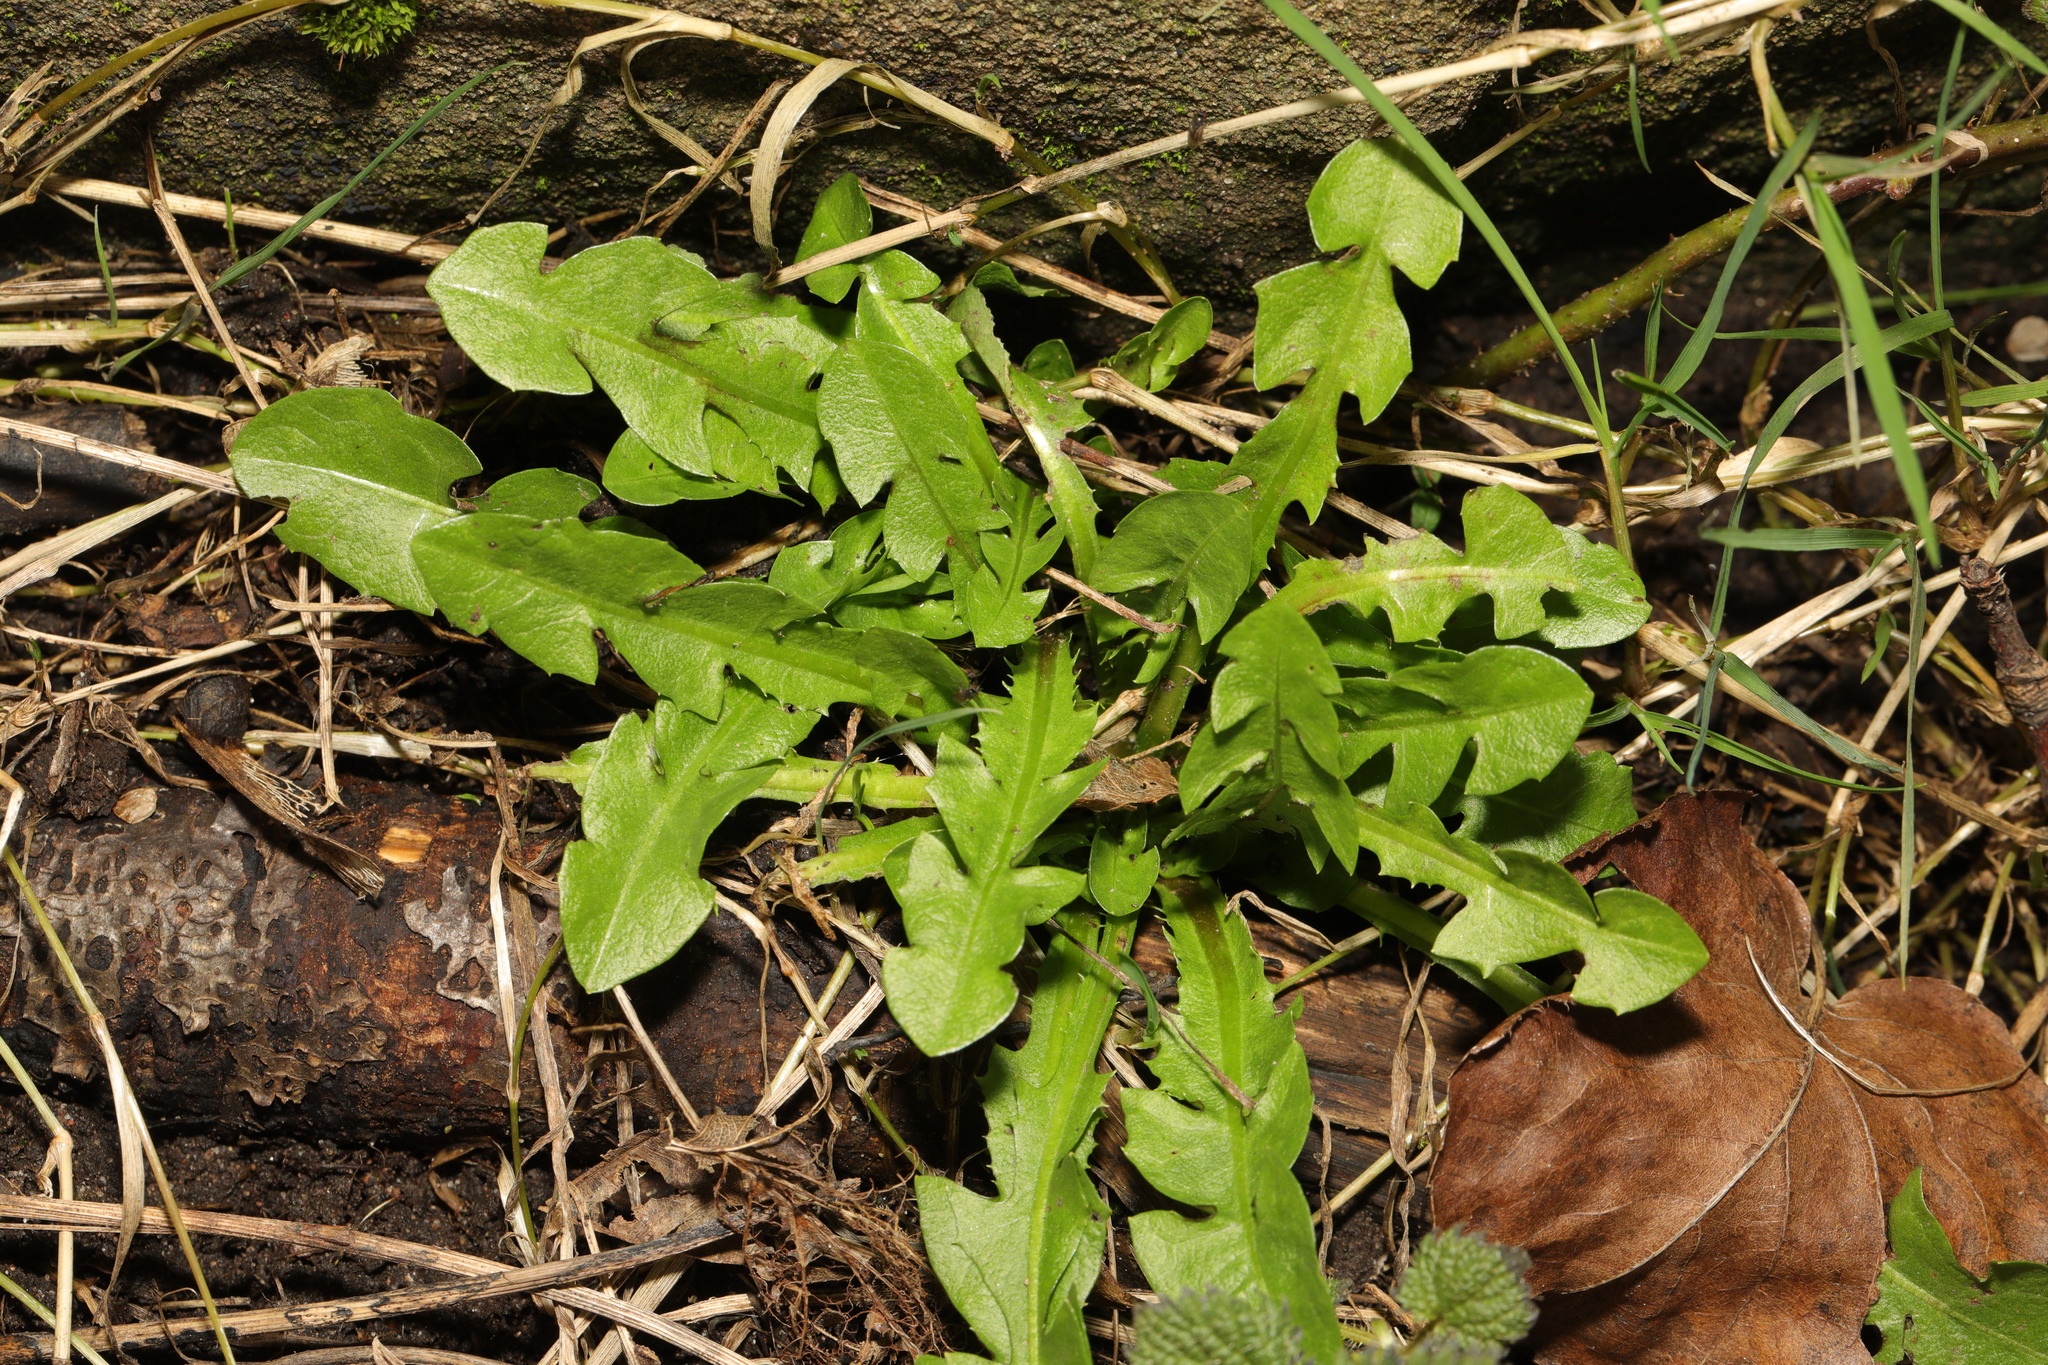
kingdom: Plantae
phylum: Tracheophyta
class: Magnoliopsida
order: Asterales
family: Asteraceae
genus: Taraxacum
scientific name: Taraxacum officinale
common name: Common dandelion
